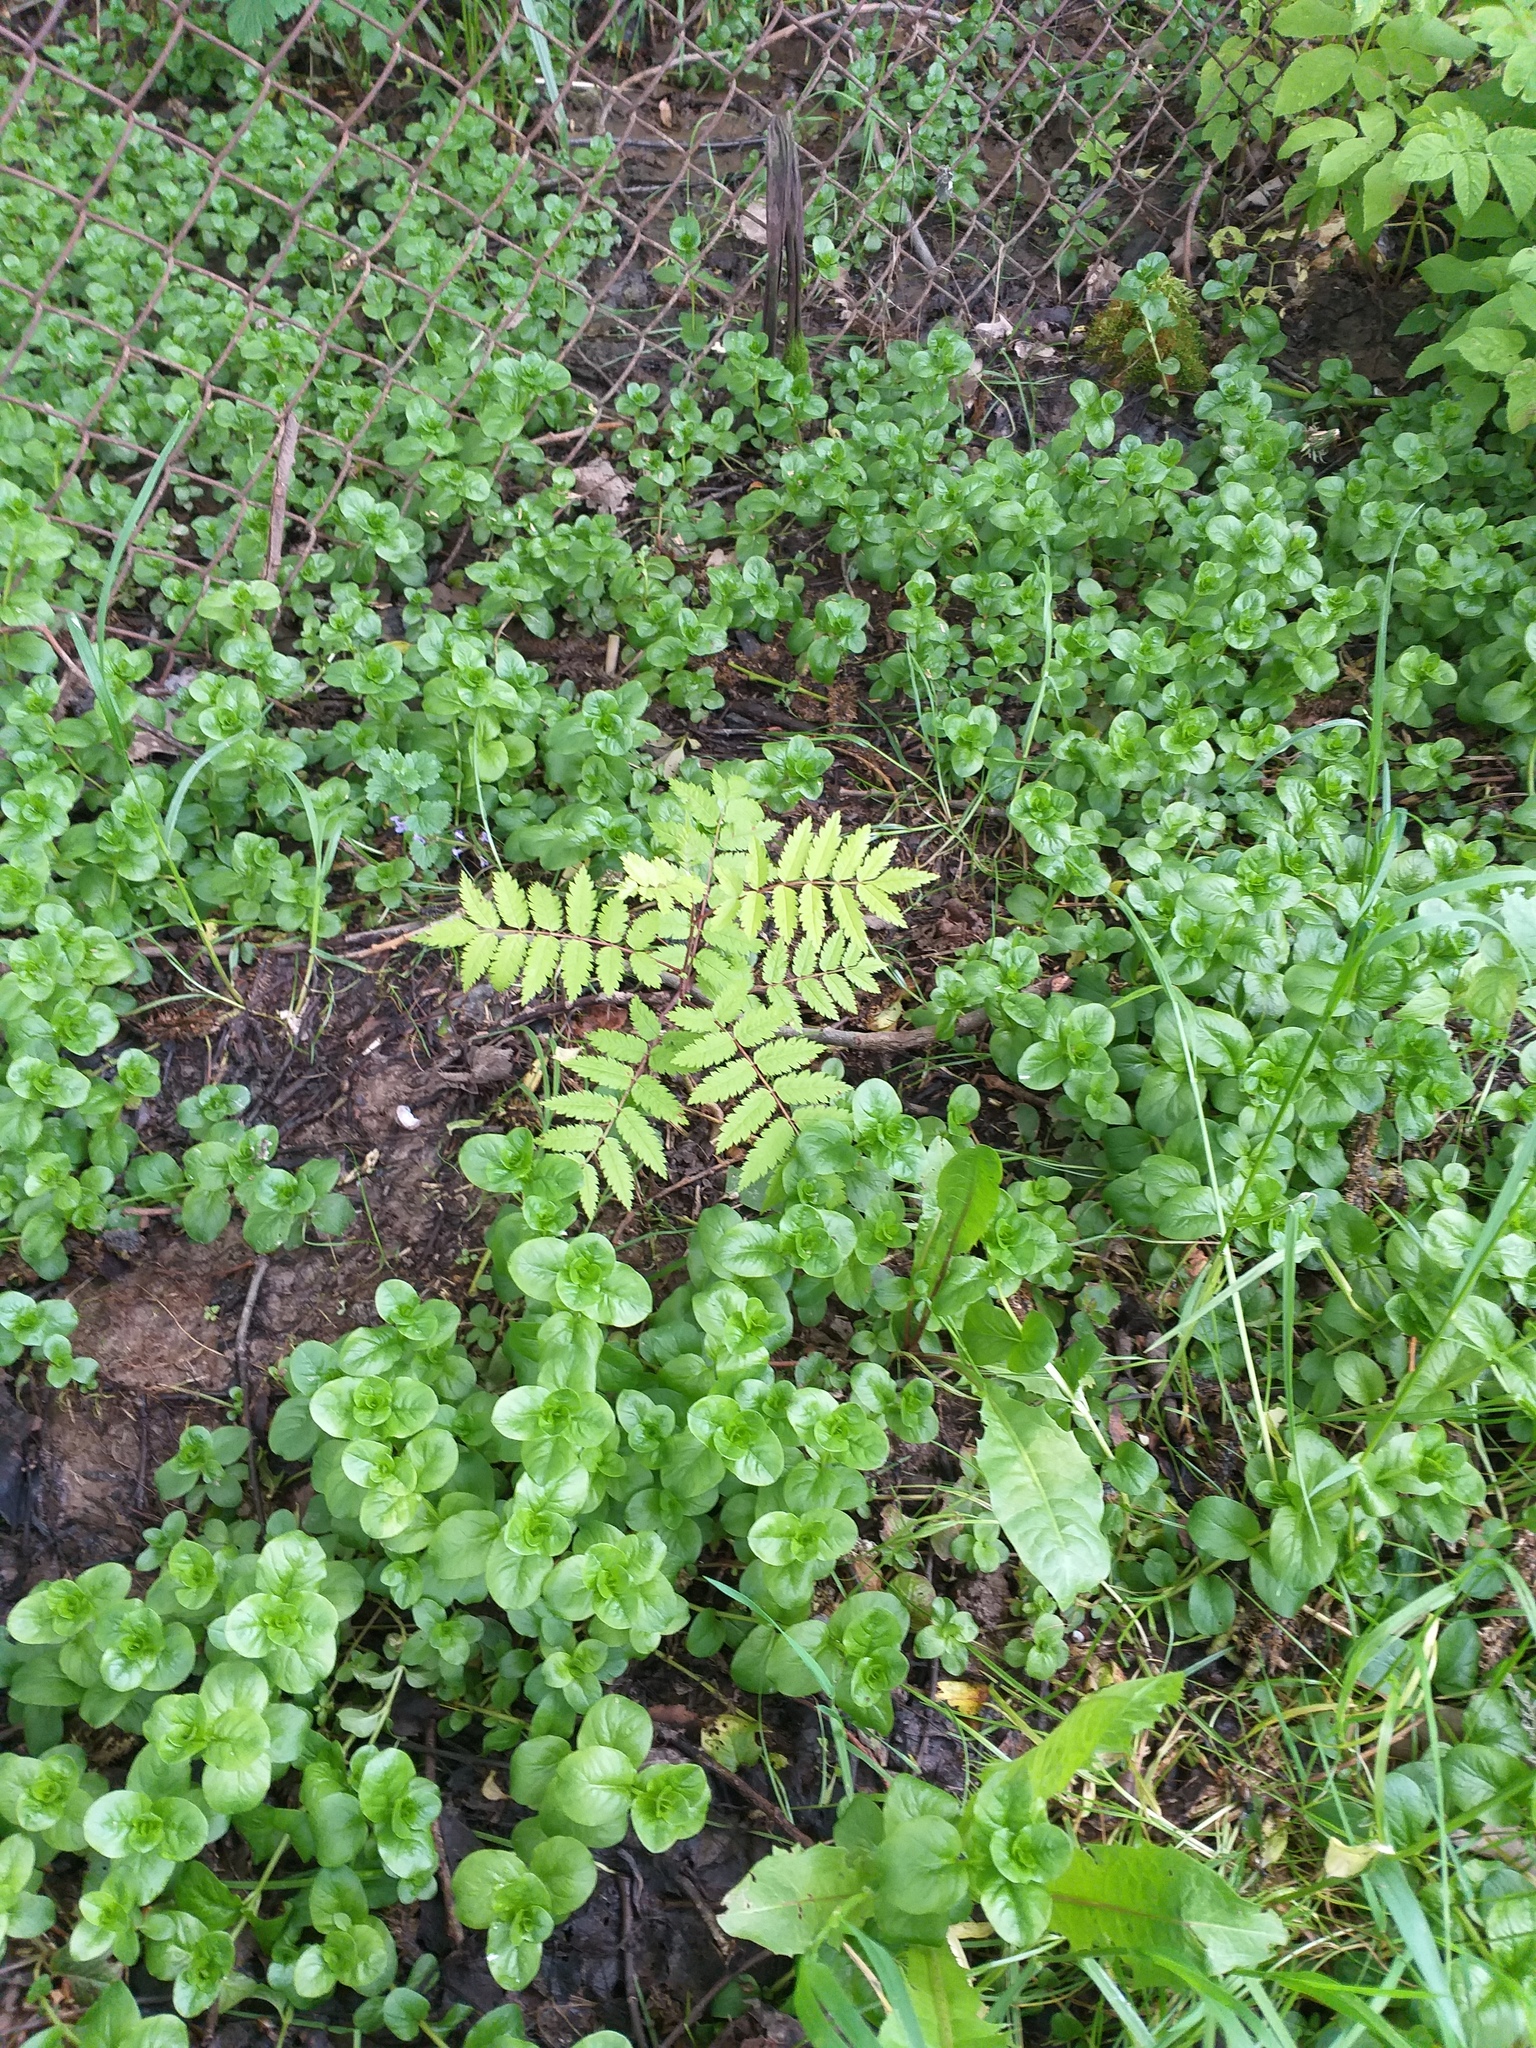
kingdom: Plantae
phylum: Tracheophyta
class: Magnoliopsida
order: Rosales
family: Rosaceae
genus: Sorbus
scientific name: Sorbus aucuparia
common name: Rowan
